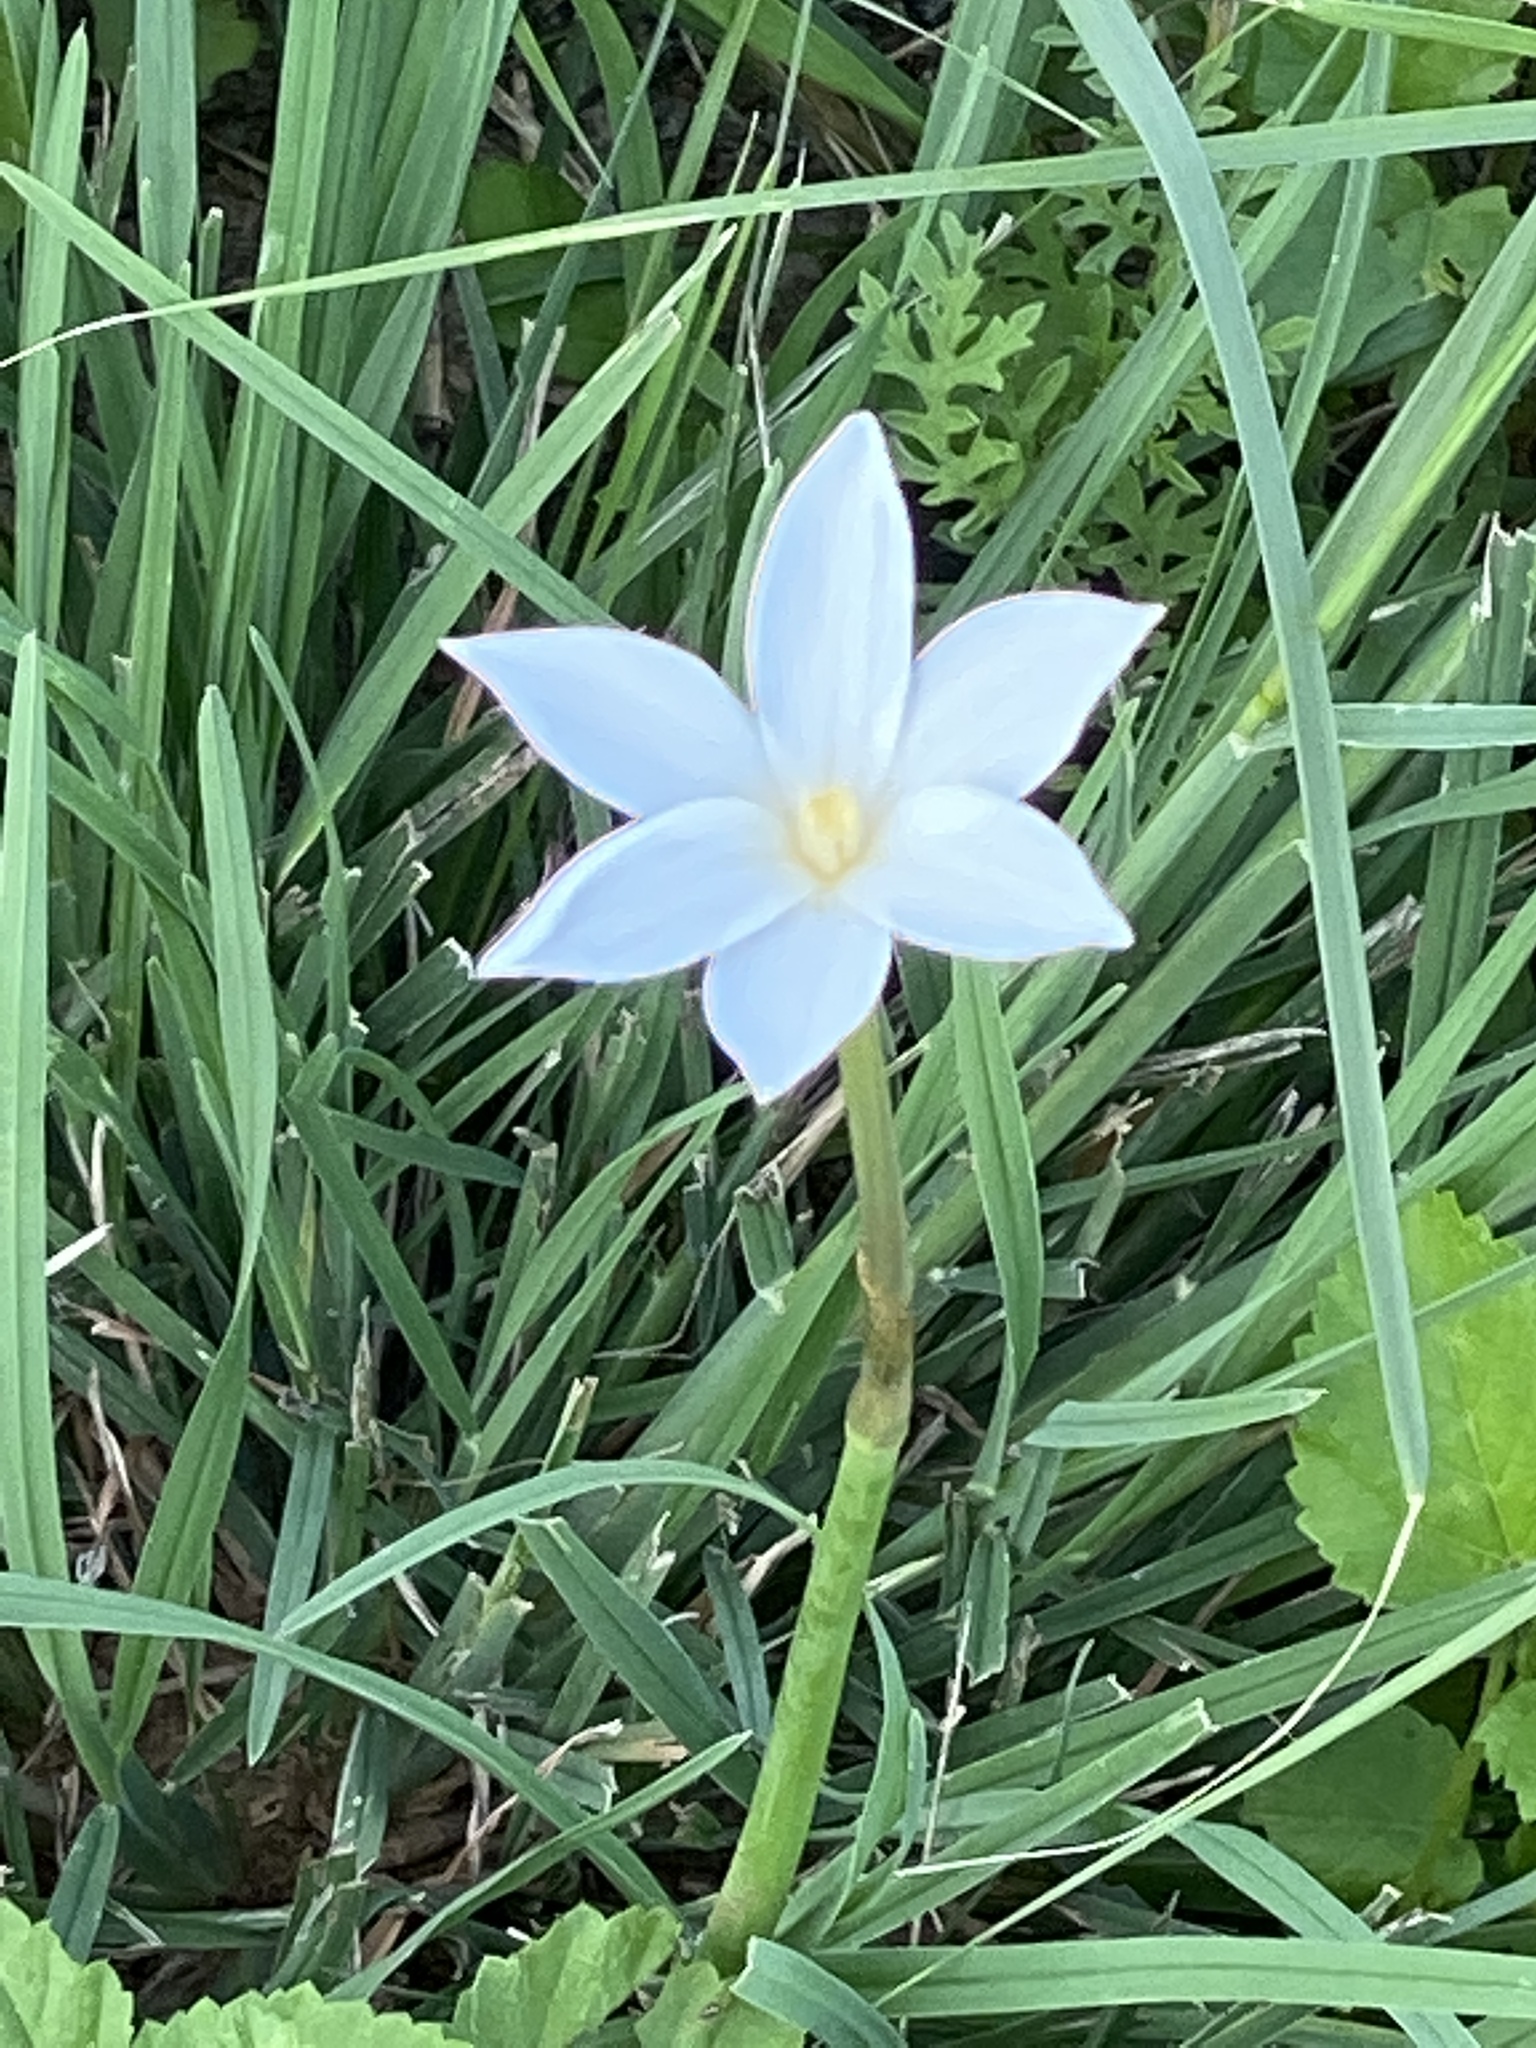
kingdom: Plantae
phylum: Tracheophyta
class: Liliopsida
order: Asparagales
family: Amaryllidaceae
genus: Zephyranthes
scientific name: Zephyranthes chlorosolen
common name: Evening rain-lily
